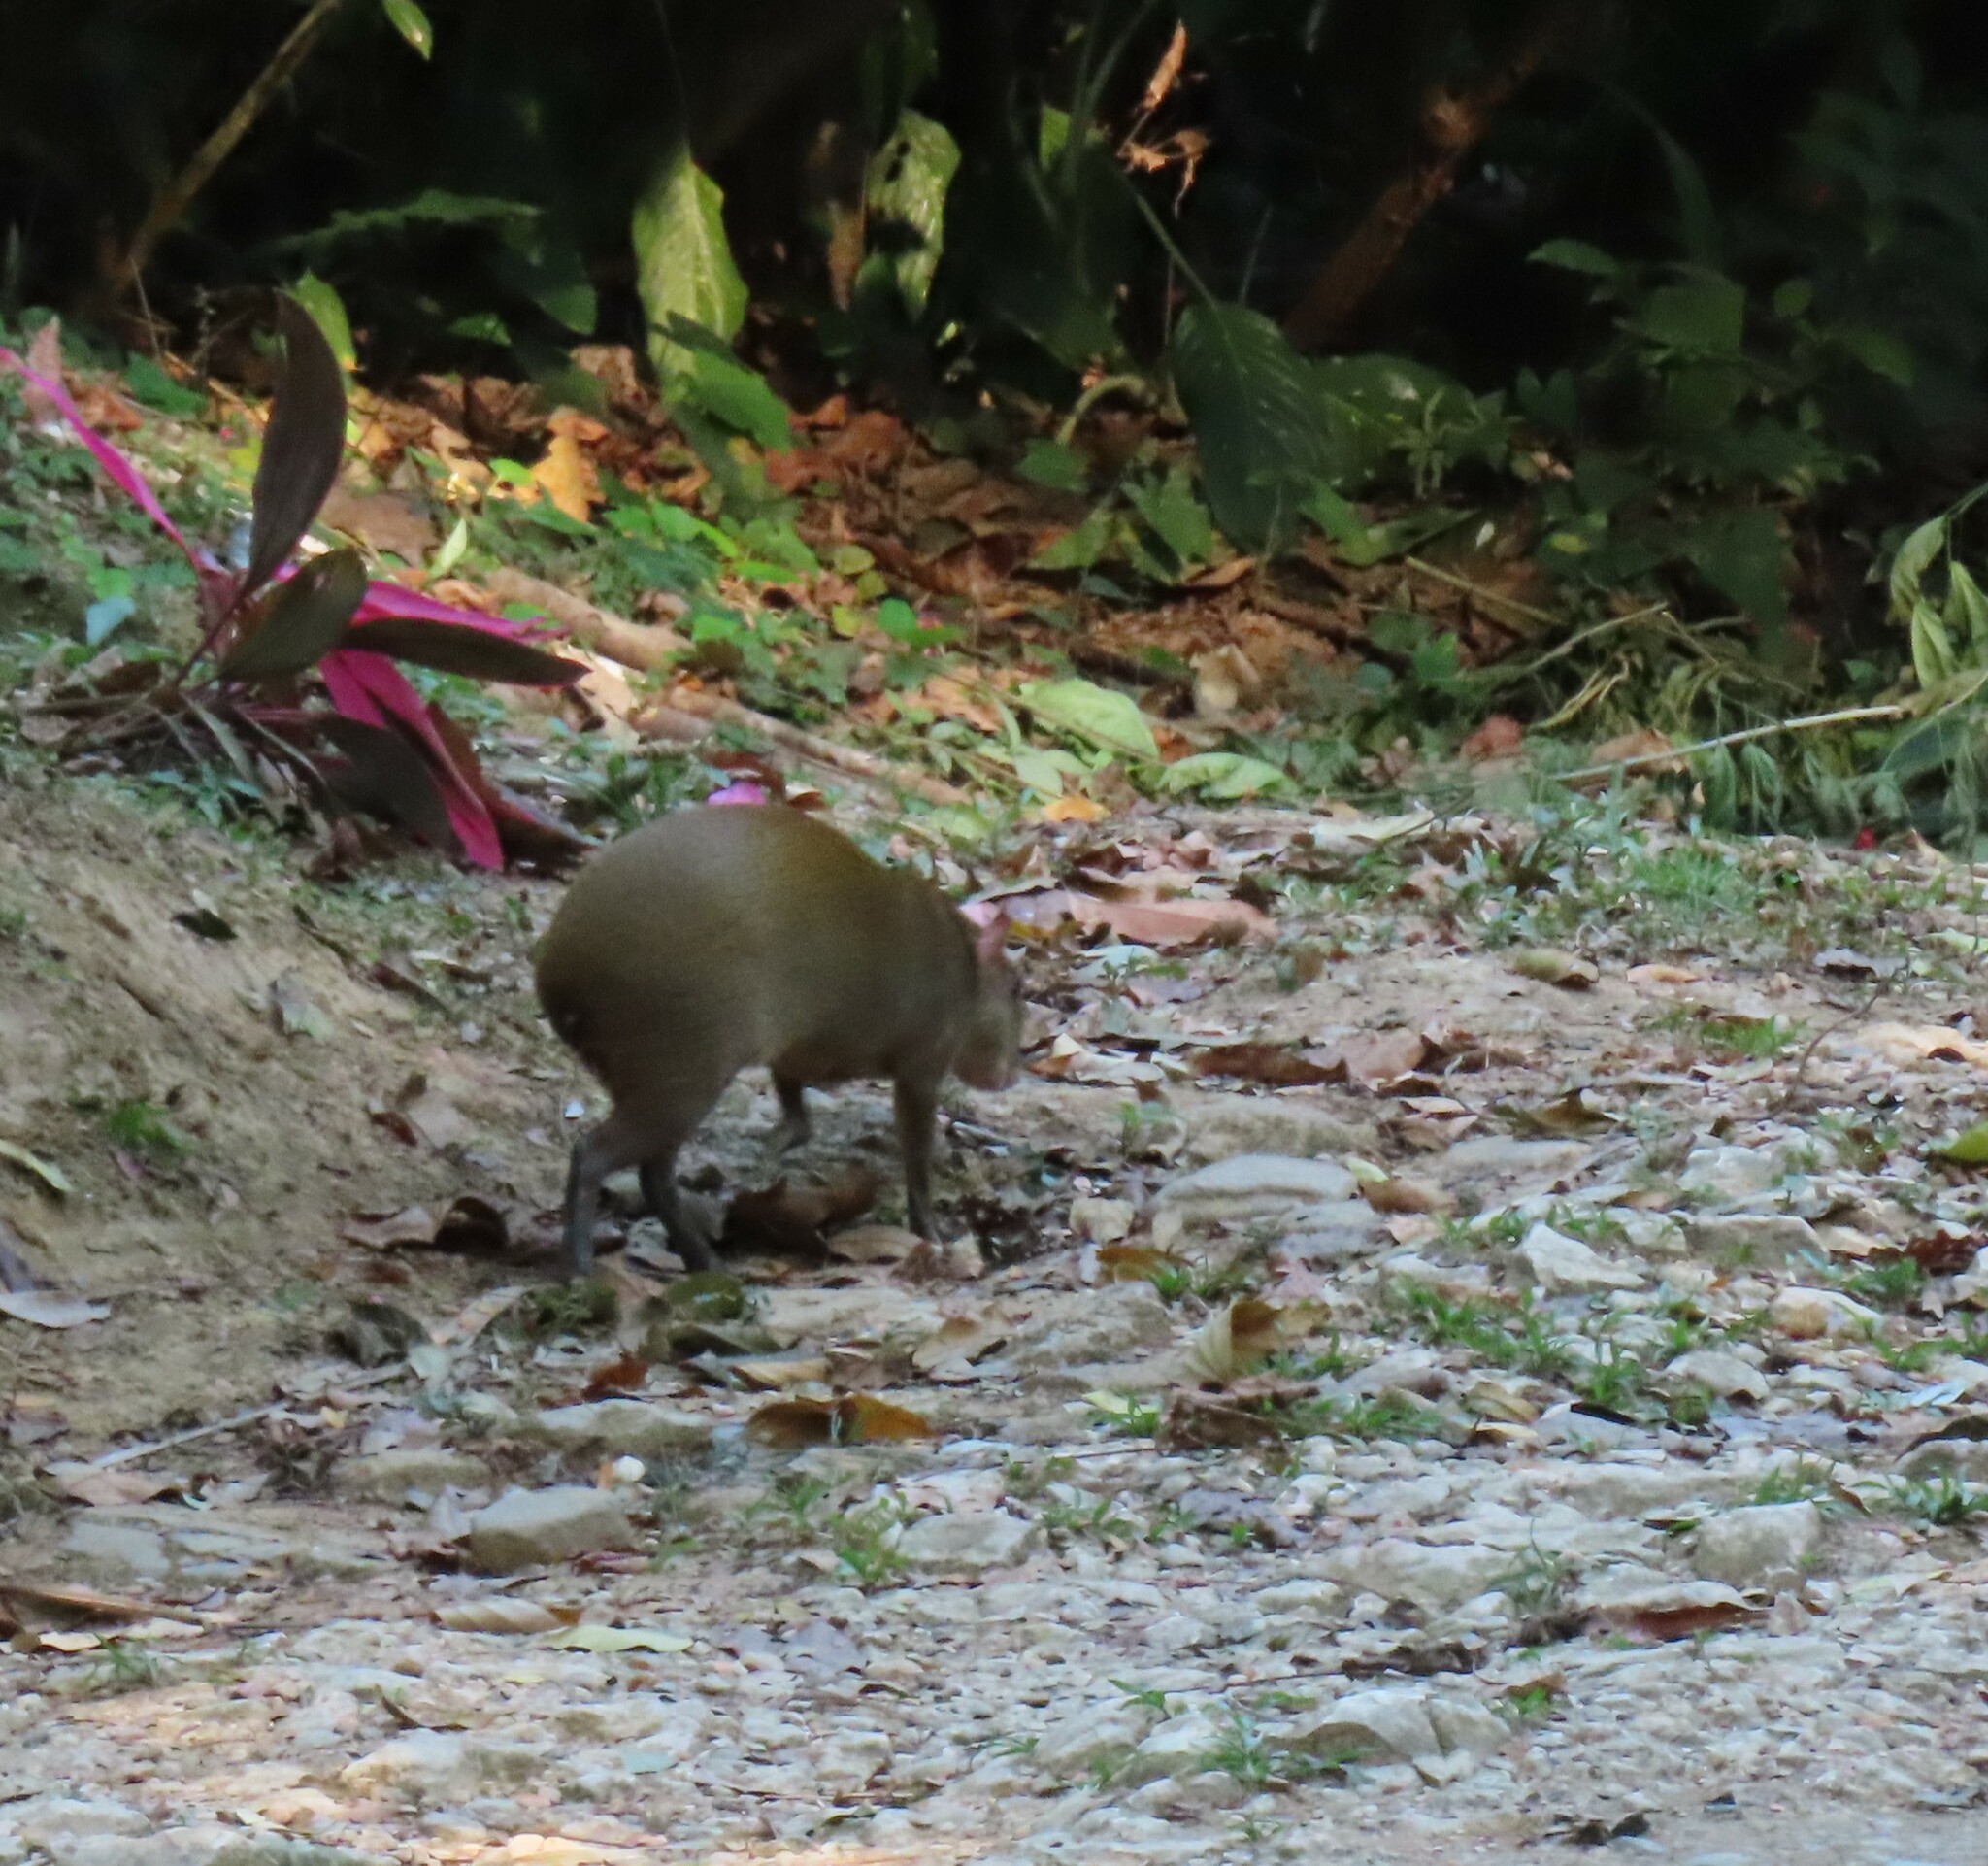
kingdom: Animalia
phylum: Chordata
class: Mammalia
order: Rodentia
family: Dasyproctidae
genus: Dasyprocta
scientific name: Dasyprocta punctata
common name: Central american agouti
